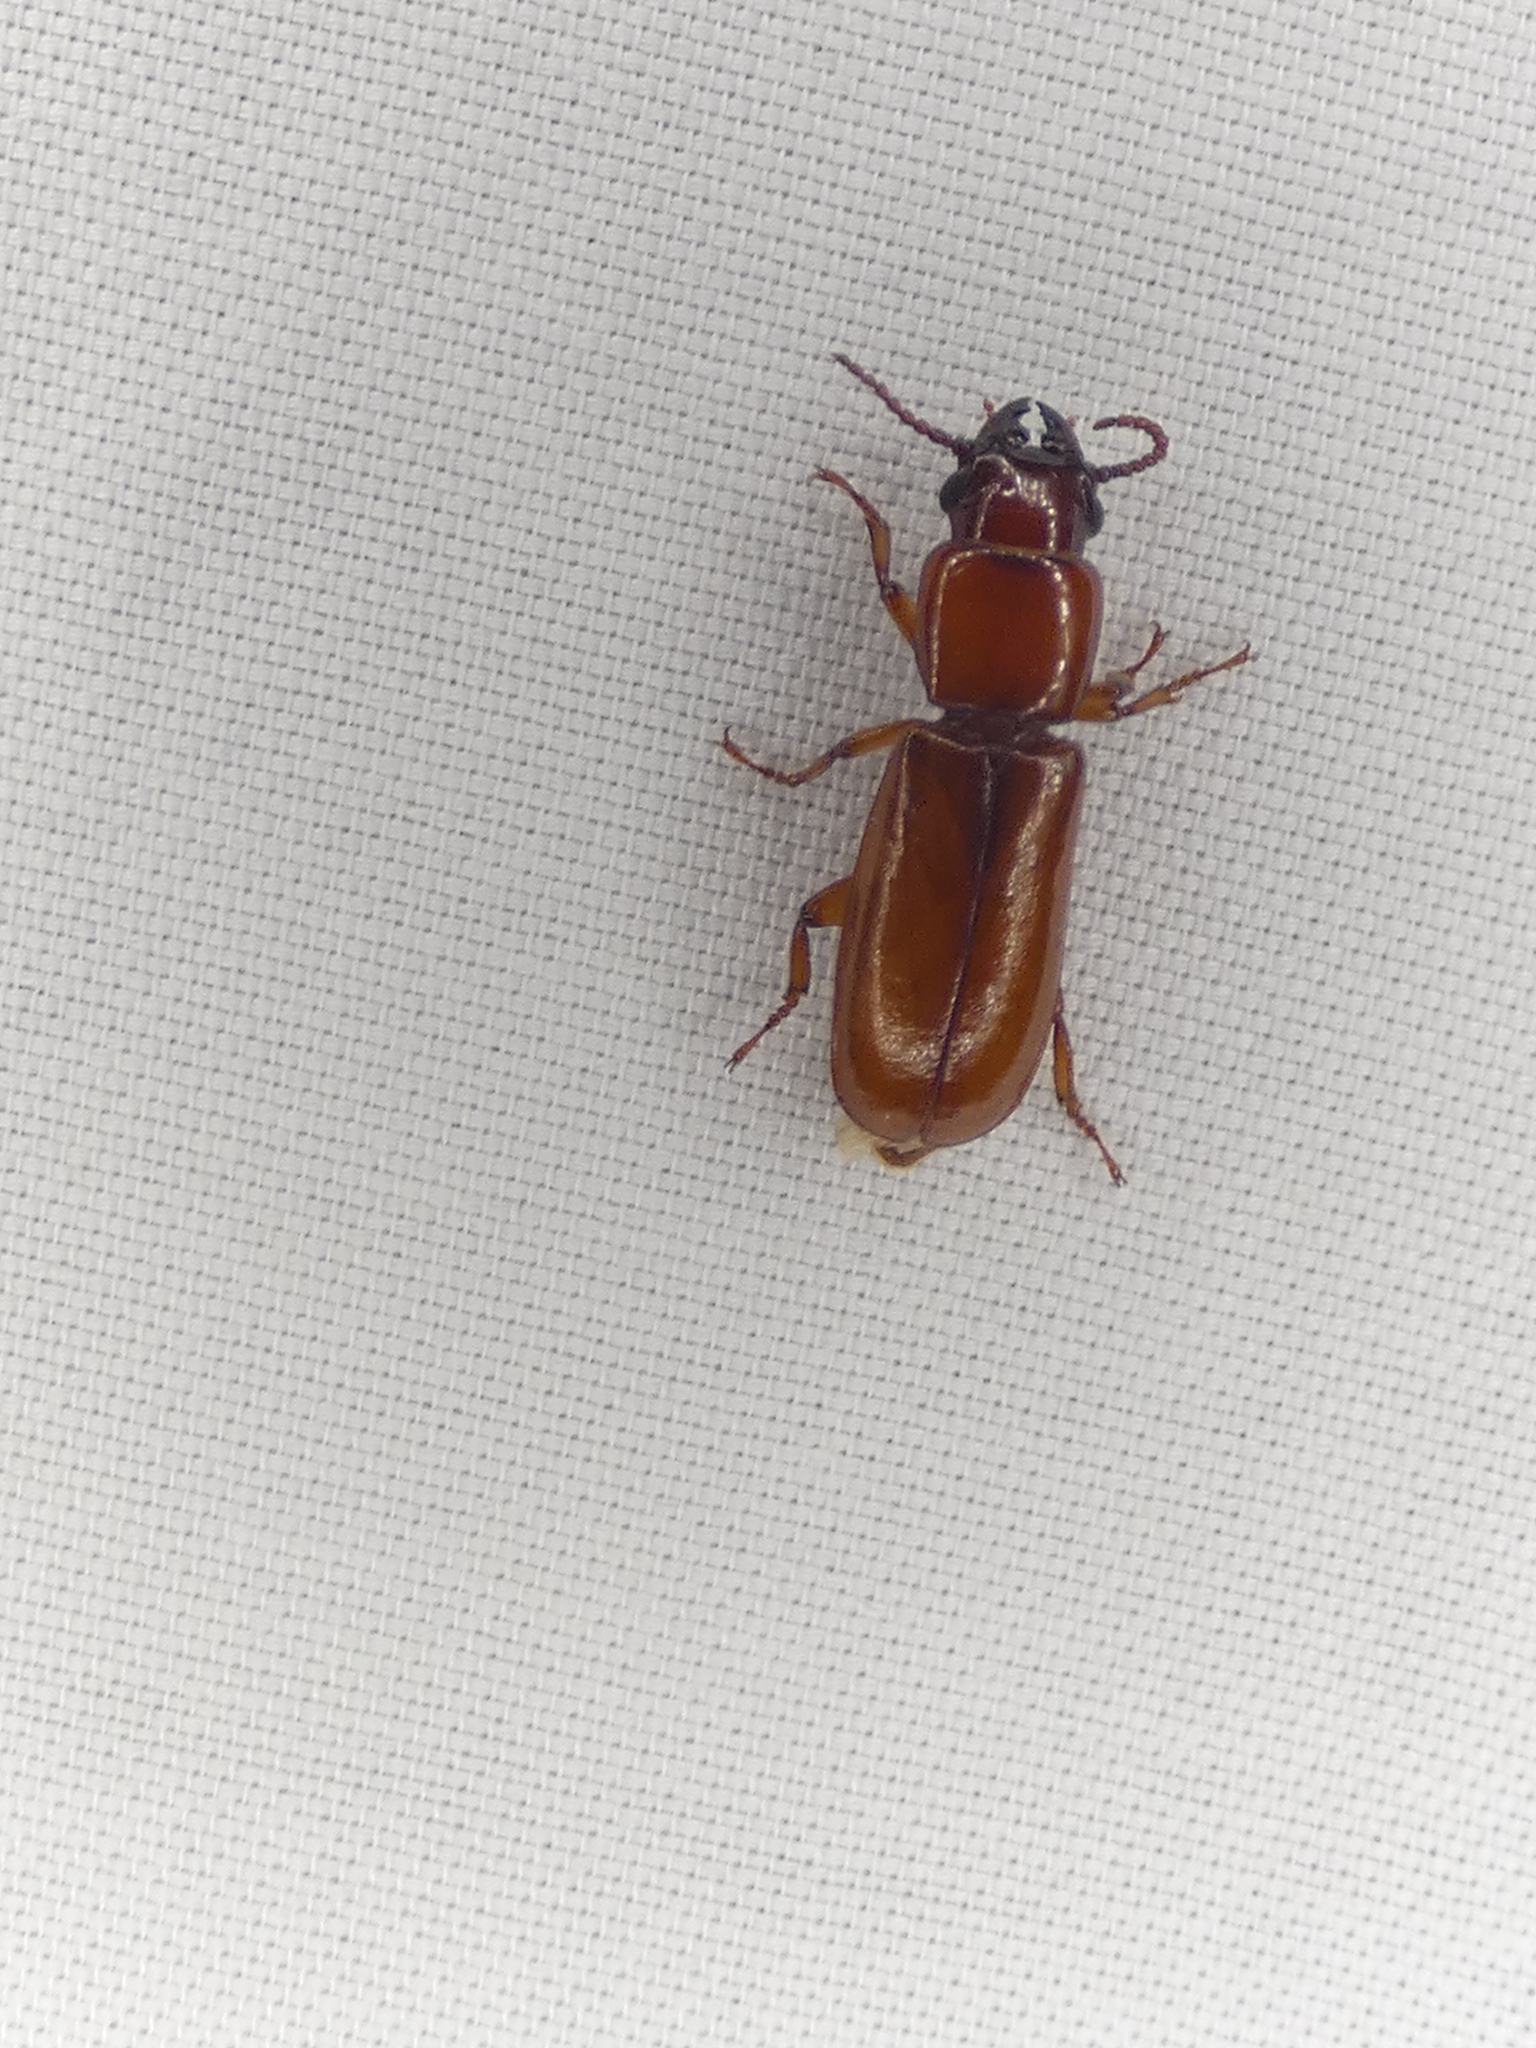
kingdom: Animalia
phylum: Arthropoda
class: Insecta
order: Coleoptera
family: Cerambycidae
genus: Parandra
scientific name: Parandra polita
